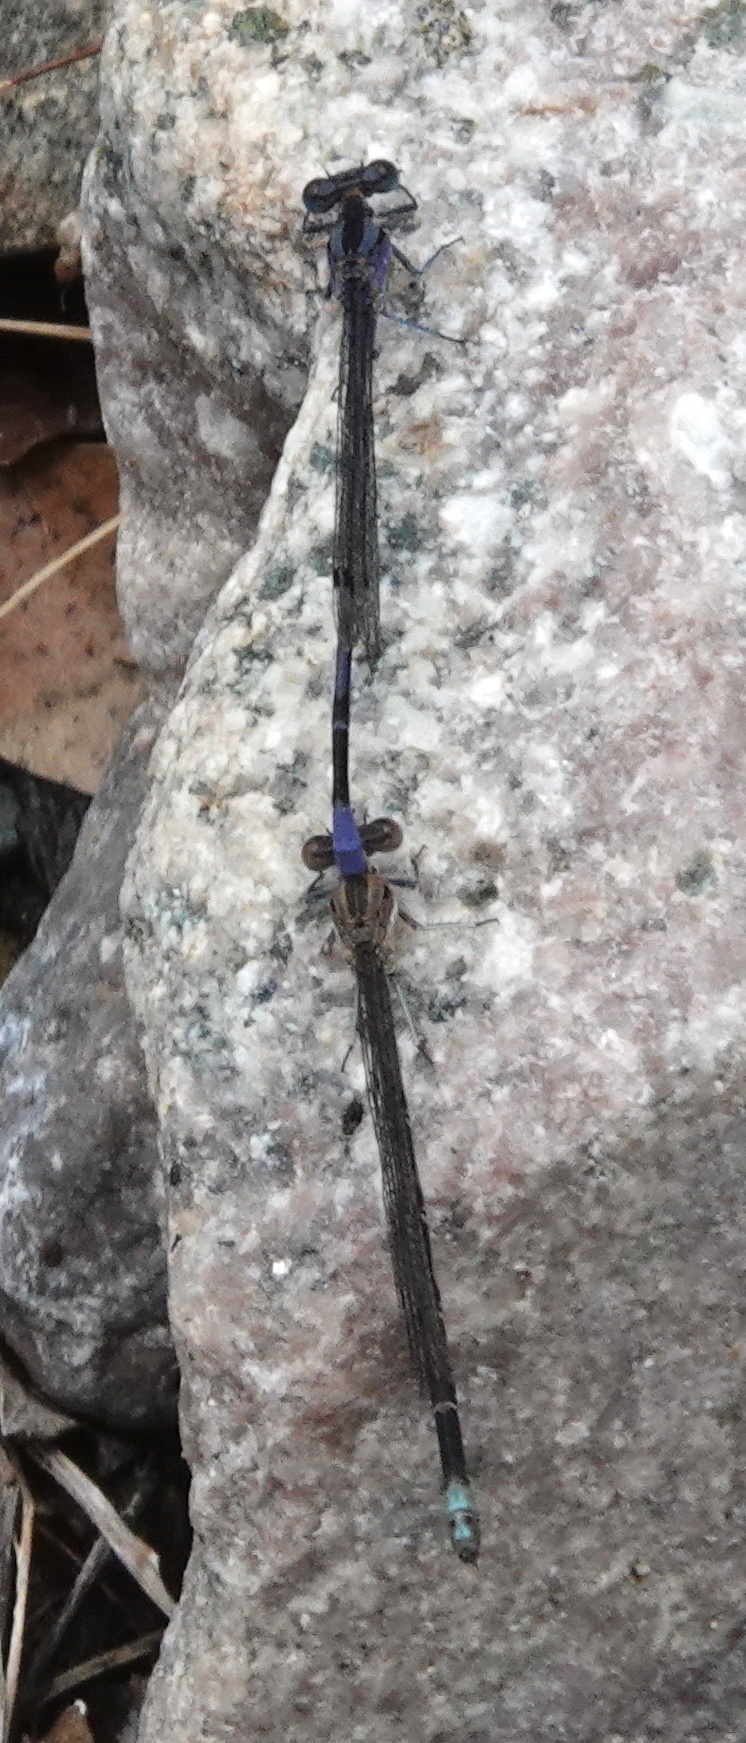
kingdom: Animalia
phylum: Arthropoda
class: Insecta
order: Odonata
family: Coenagrionidae
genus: Argia
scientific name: Argia funebris
